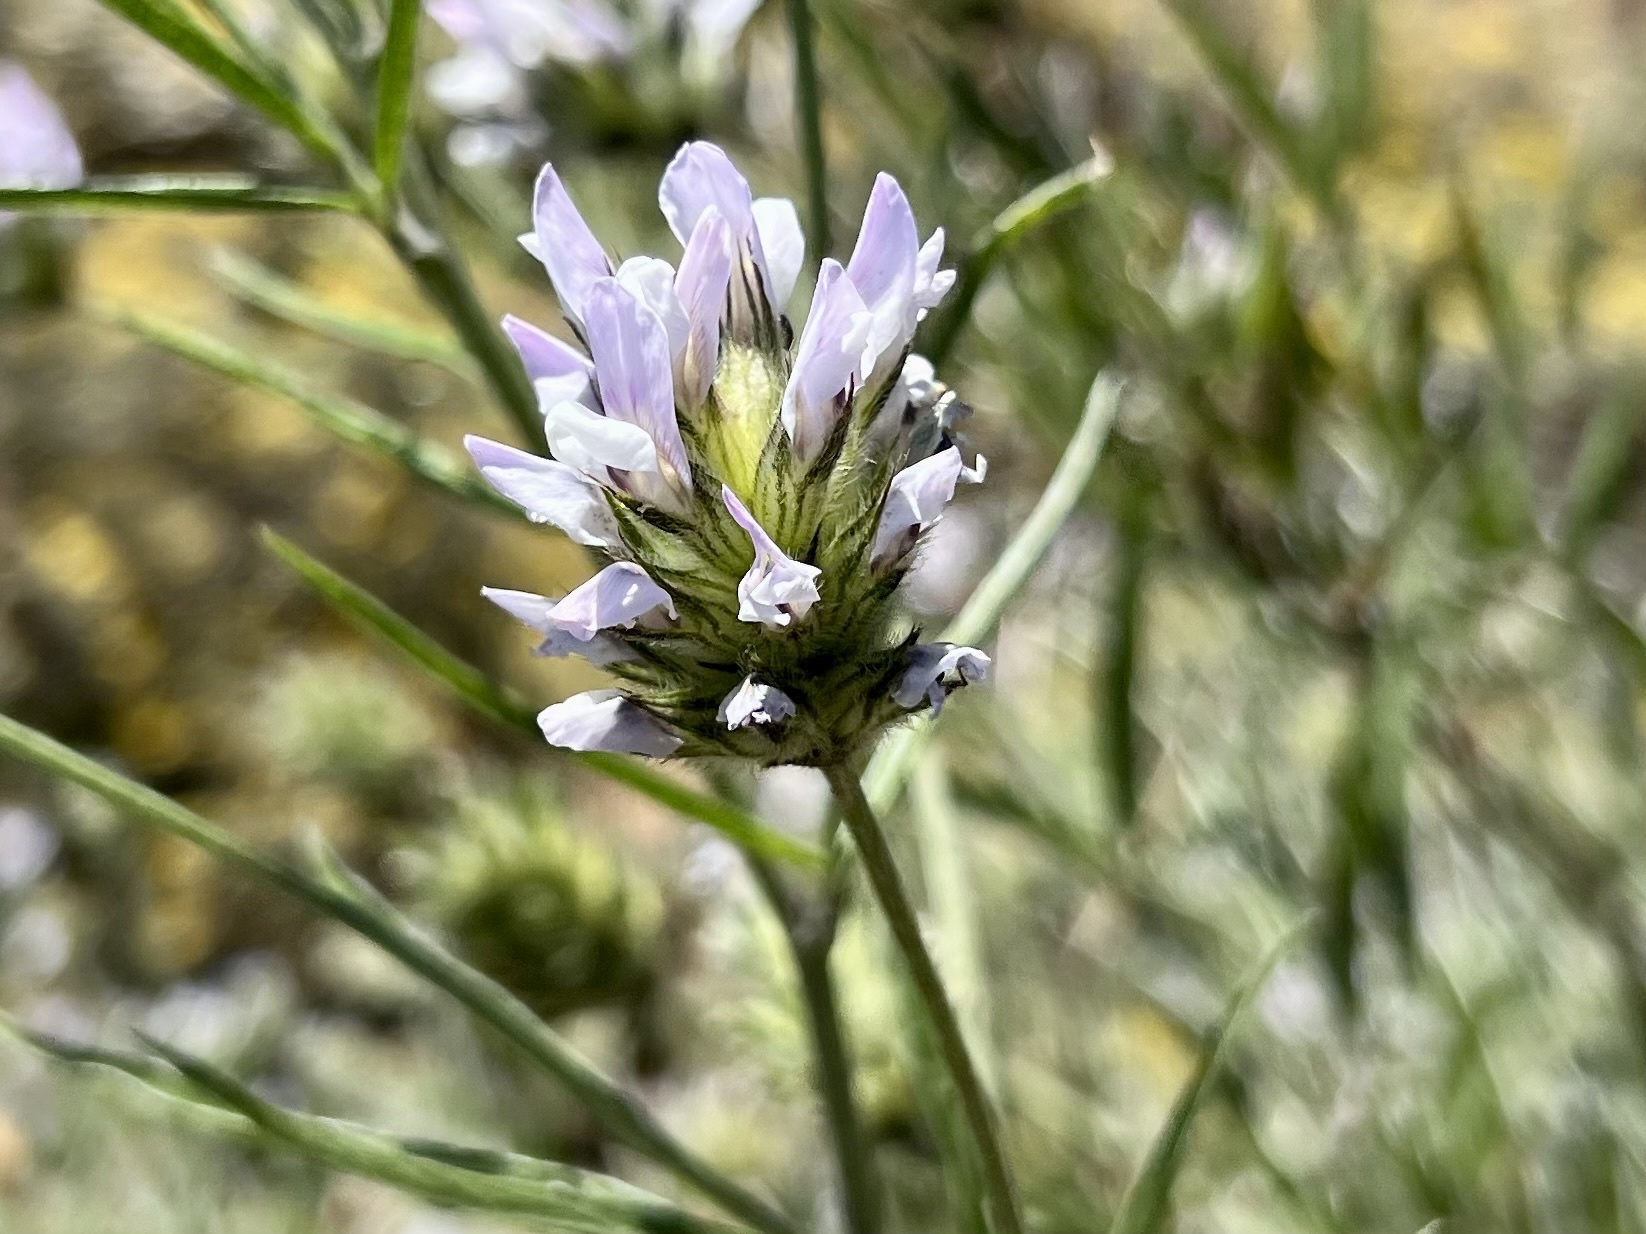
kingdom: Plantae
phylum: Tracheophyta
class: Magnoliopsida
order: Fabales
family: Fabaceae
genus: Bituminaria
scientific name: Bituminaria bituminosa
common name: Arabian pea
